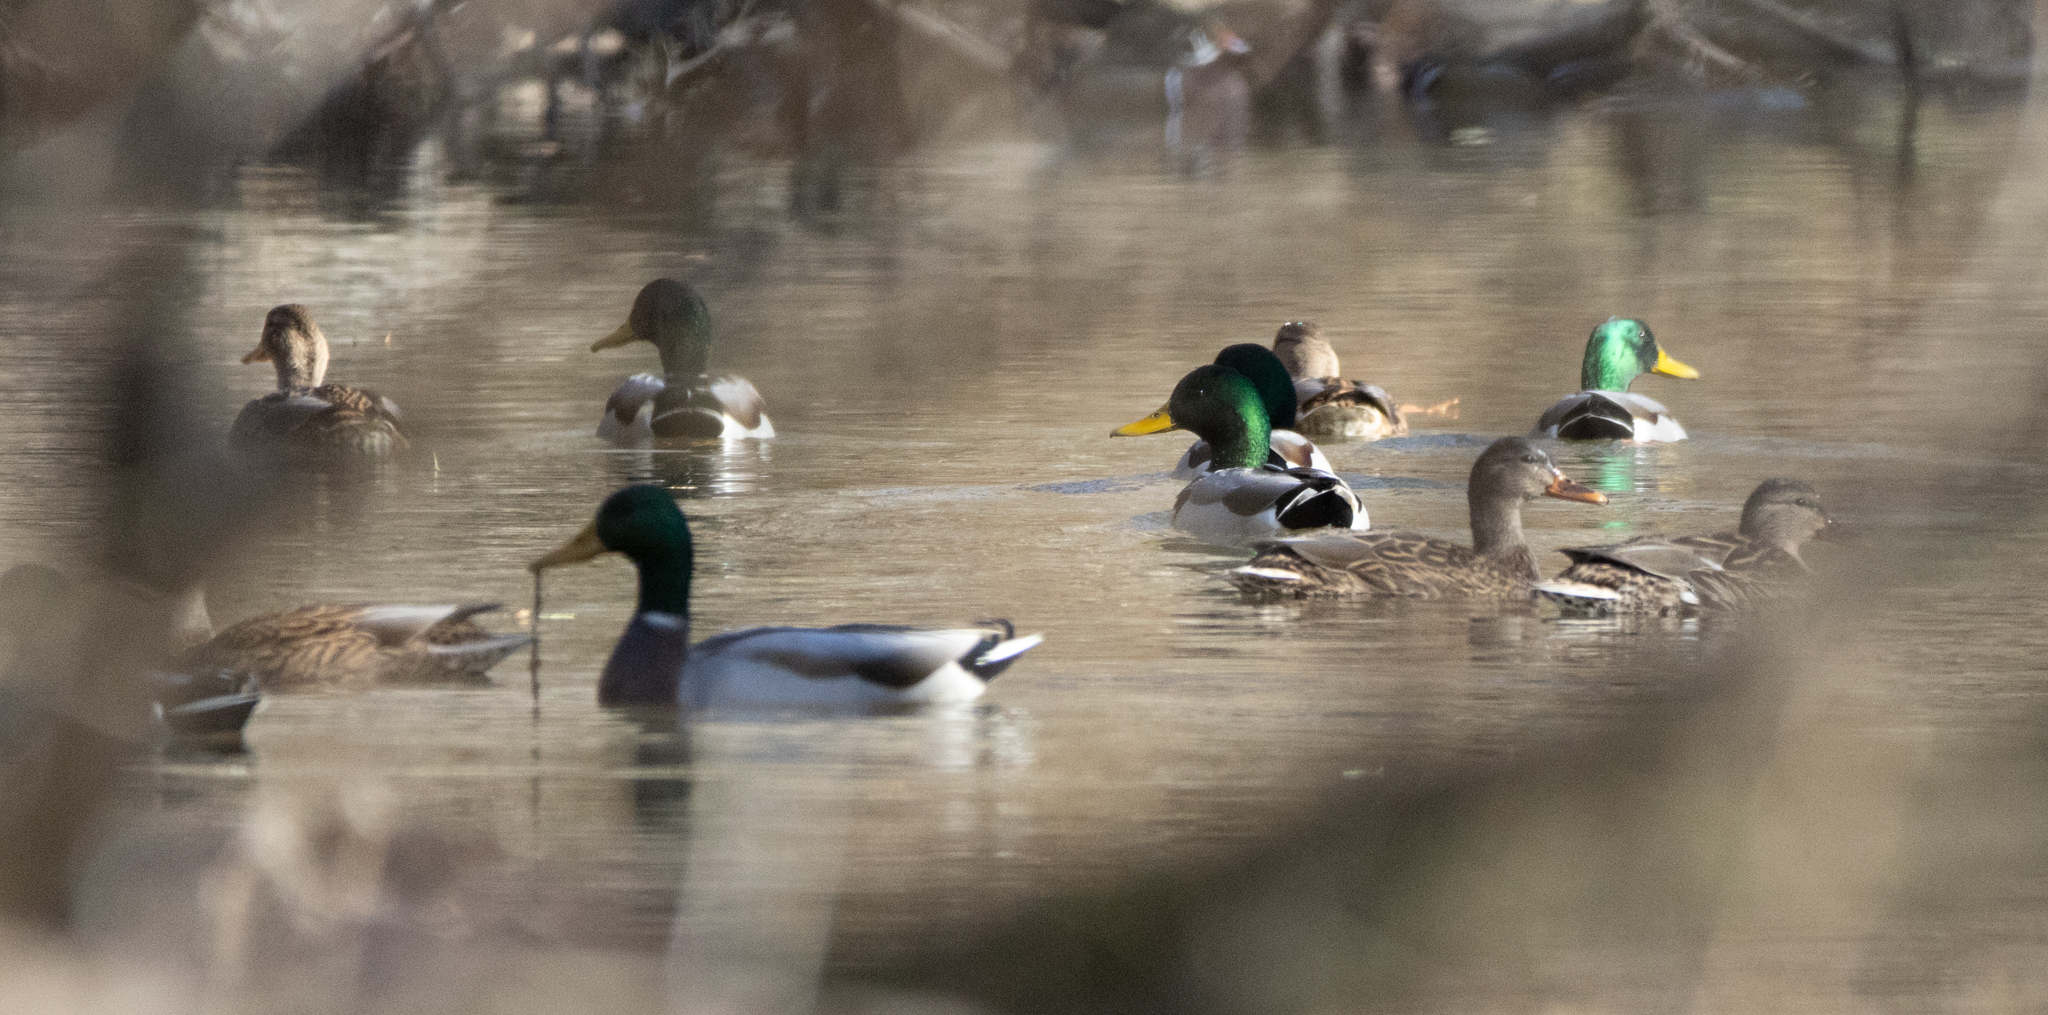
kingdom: Animalia
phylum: Chordata
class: Aves
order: Anseriformes
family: Anatidae
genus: Anas
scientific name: Anas platyrhynchos
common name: Mallard
